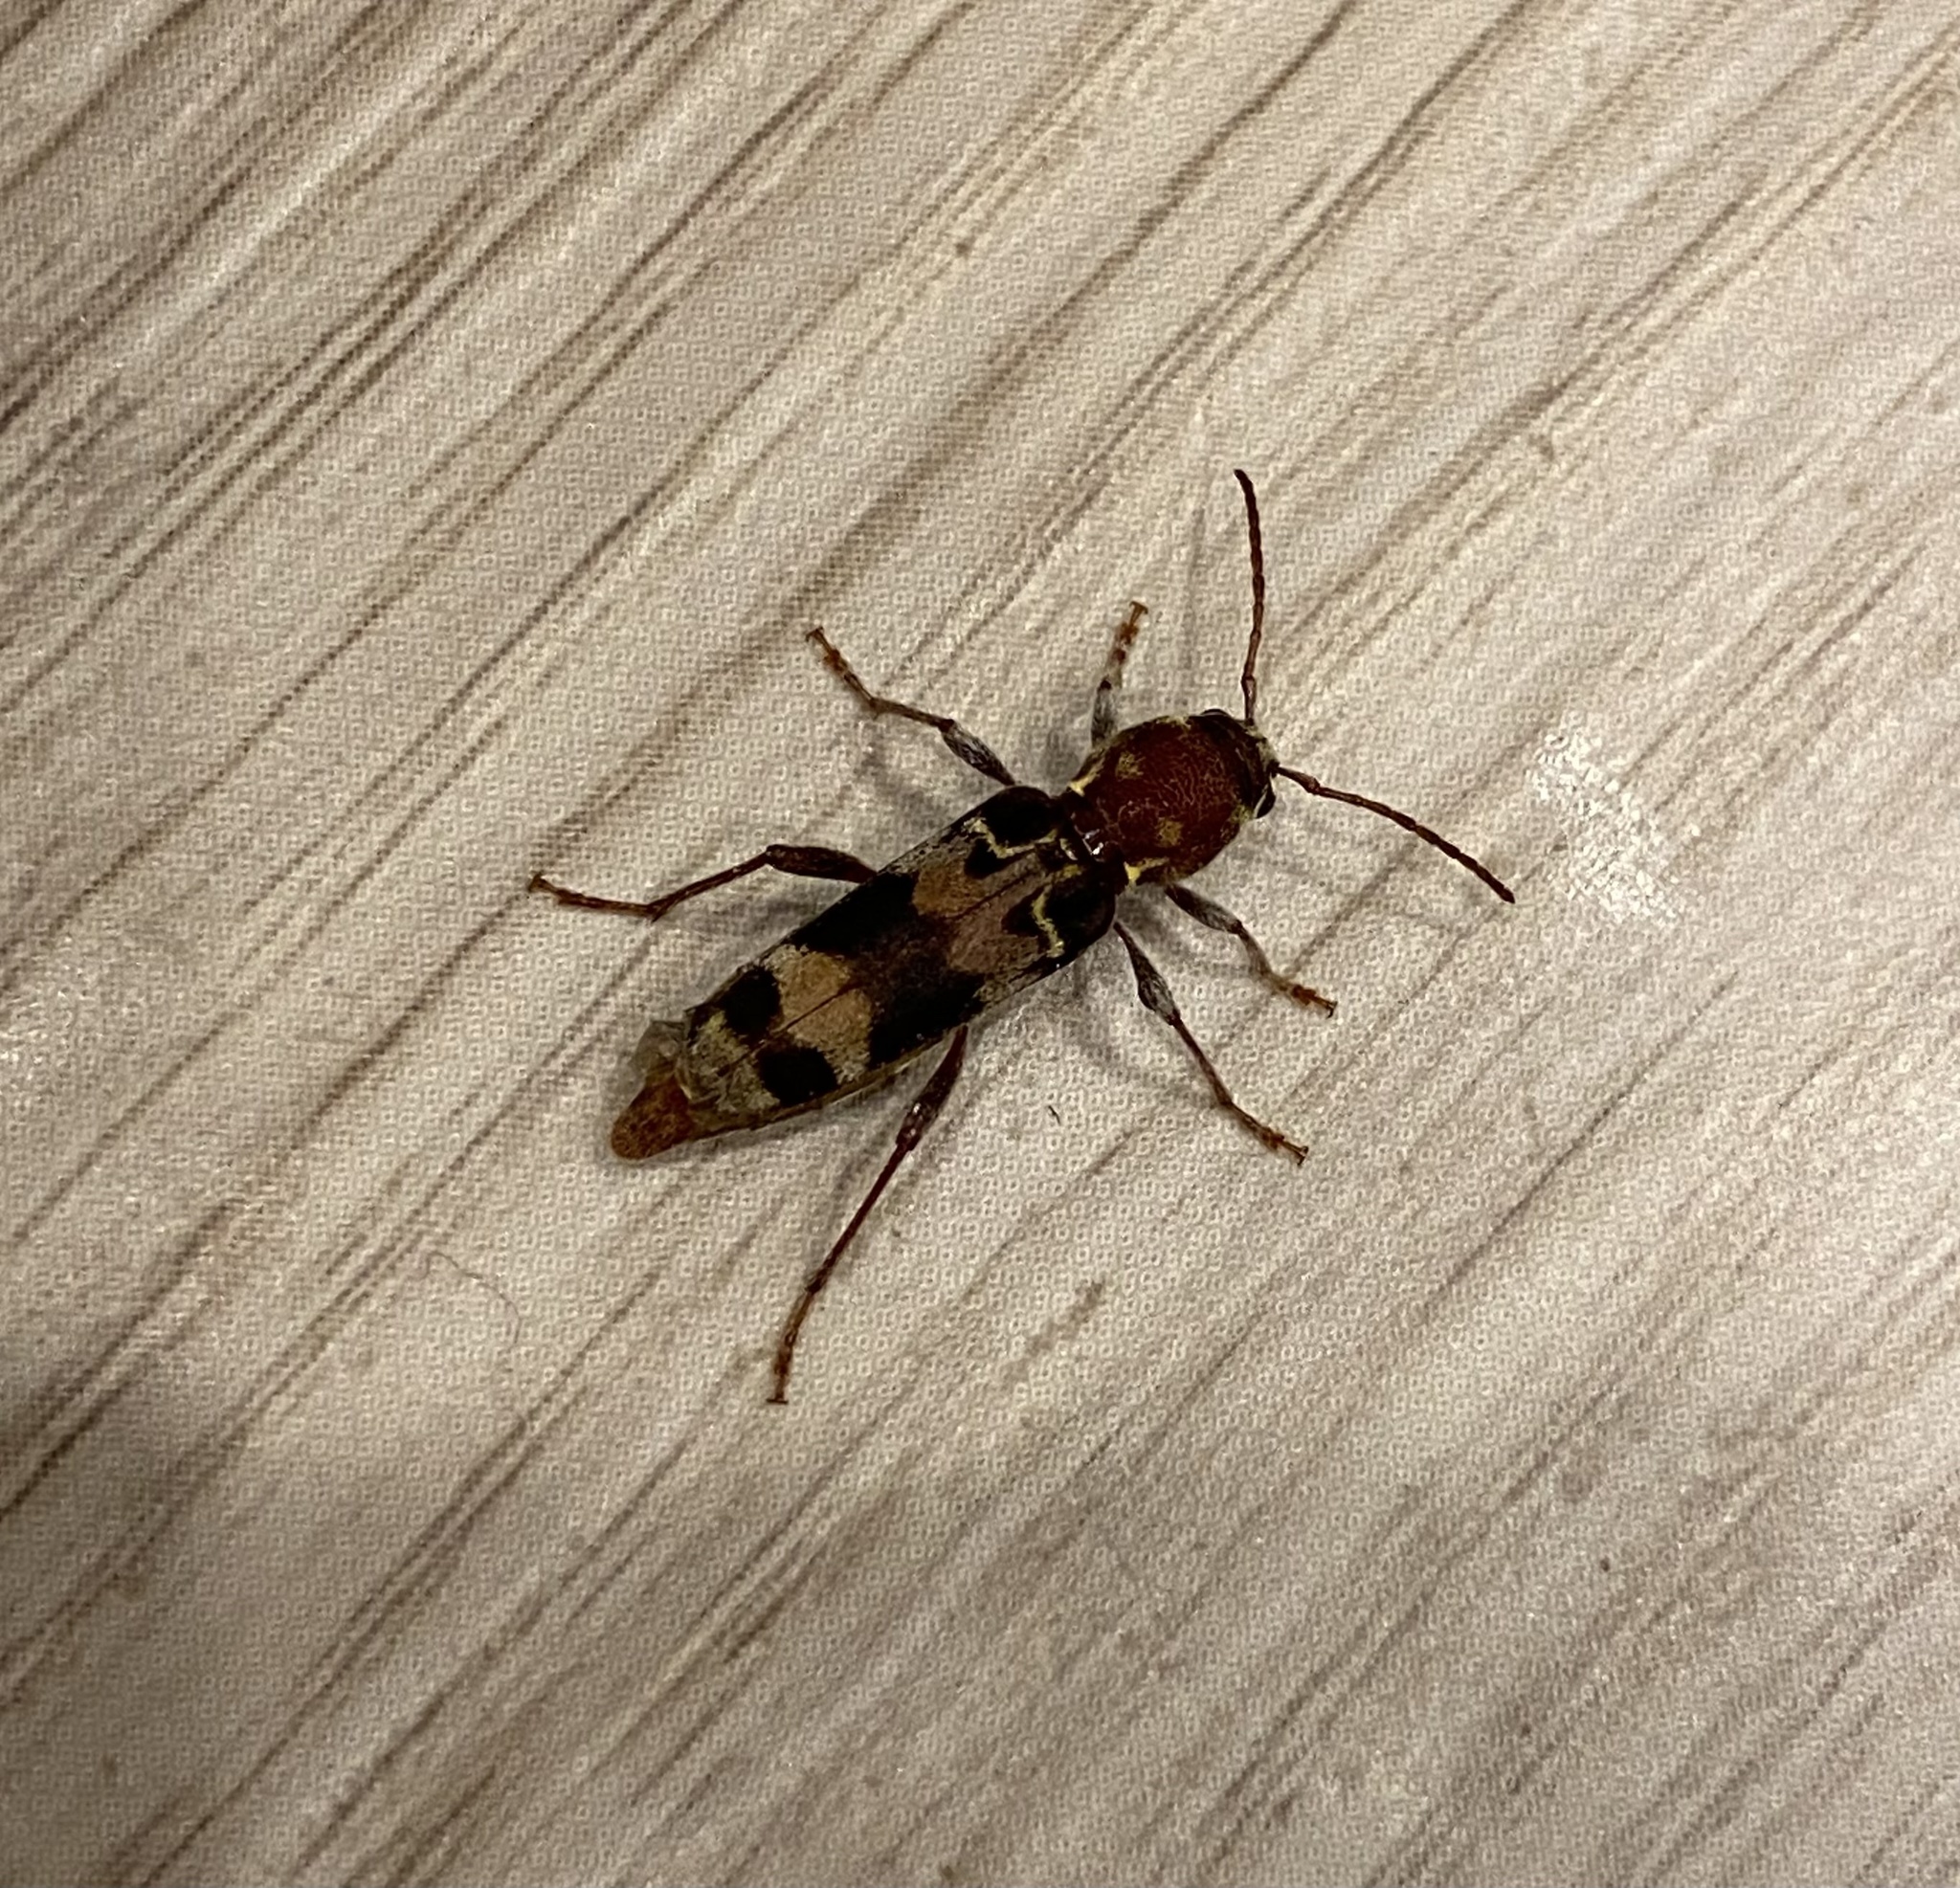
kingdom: Animalia
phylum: Arthropoda
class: Insecta
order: Coleoptera
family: Cerambycidae
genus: Xylotrechus
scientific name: Xylotrechus colonus
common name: Long-horned beetle
